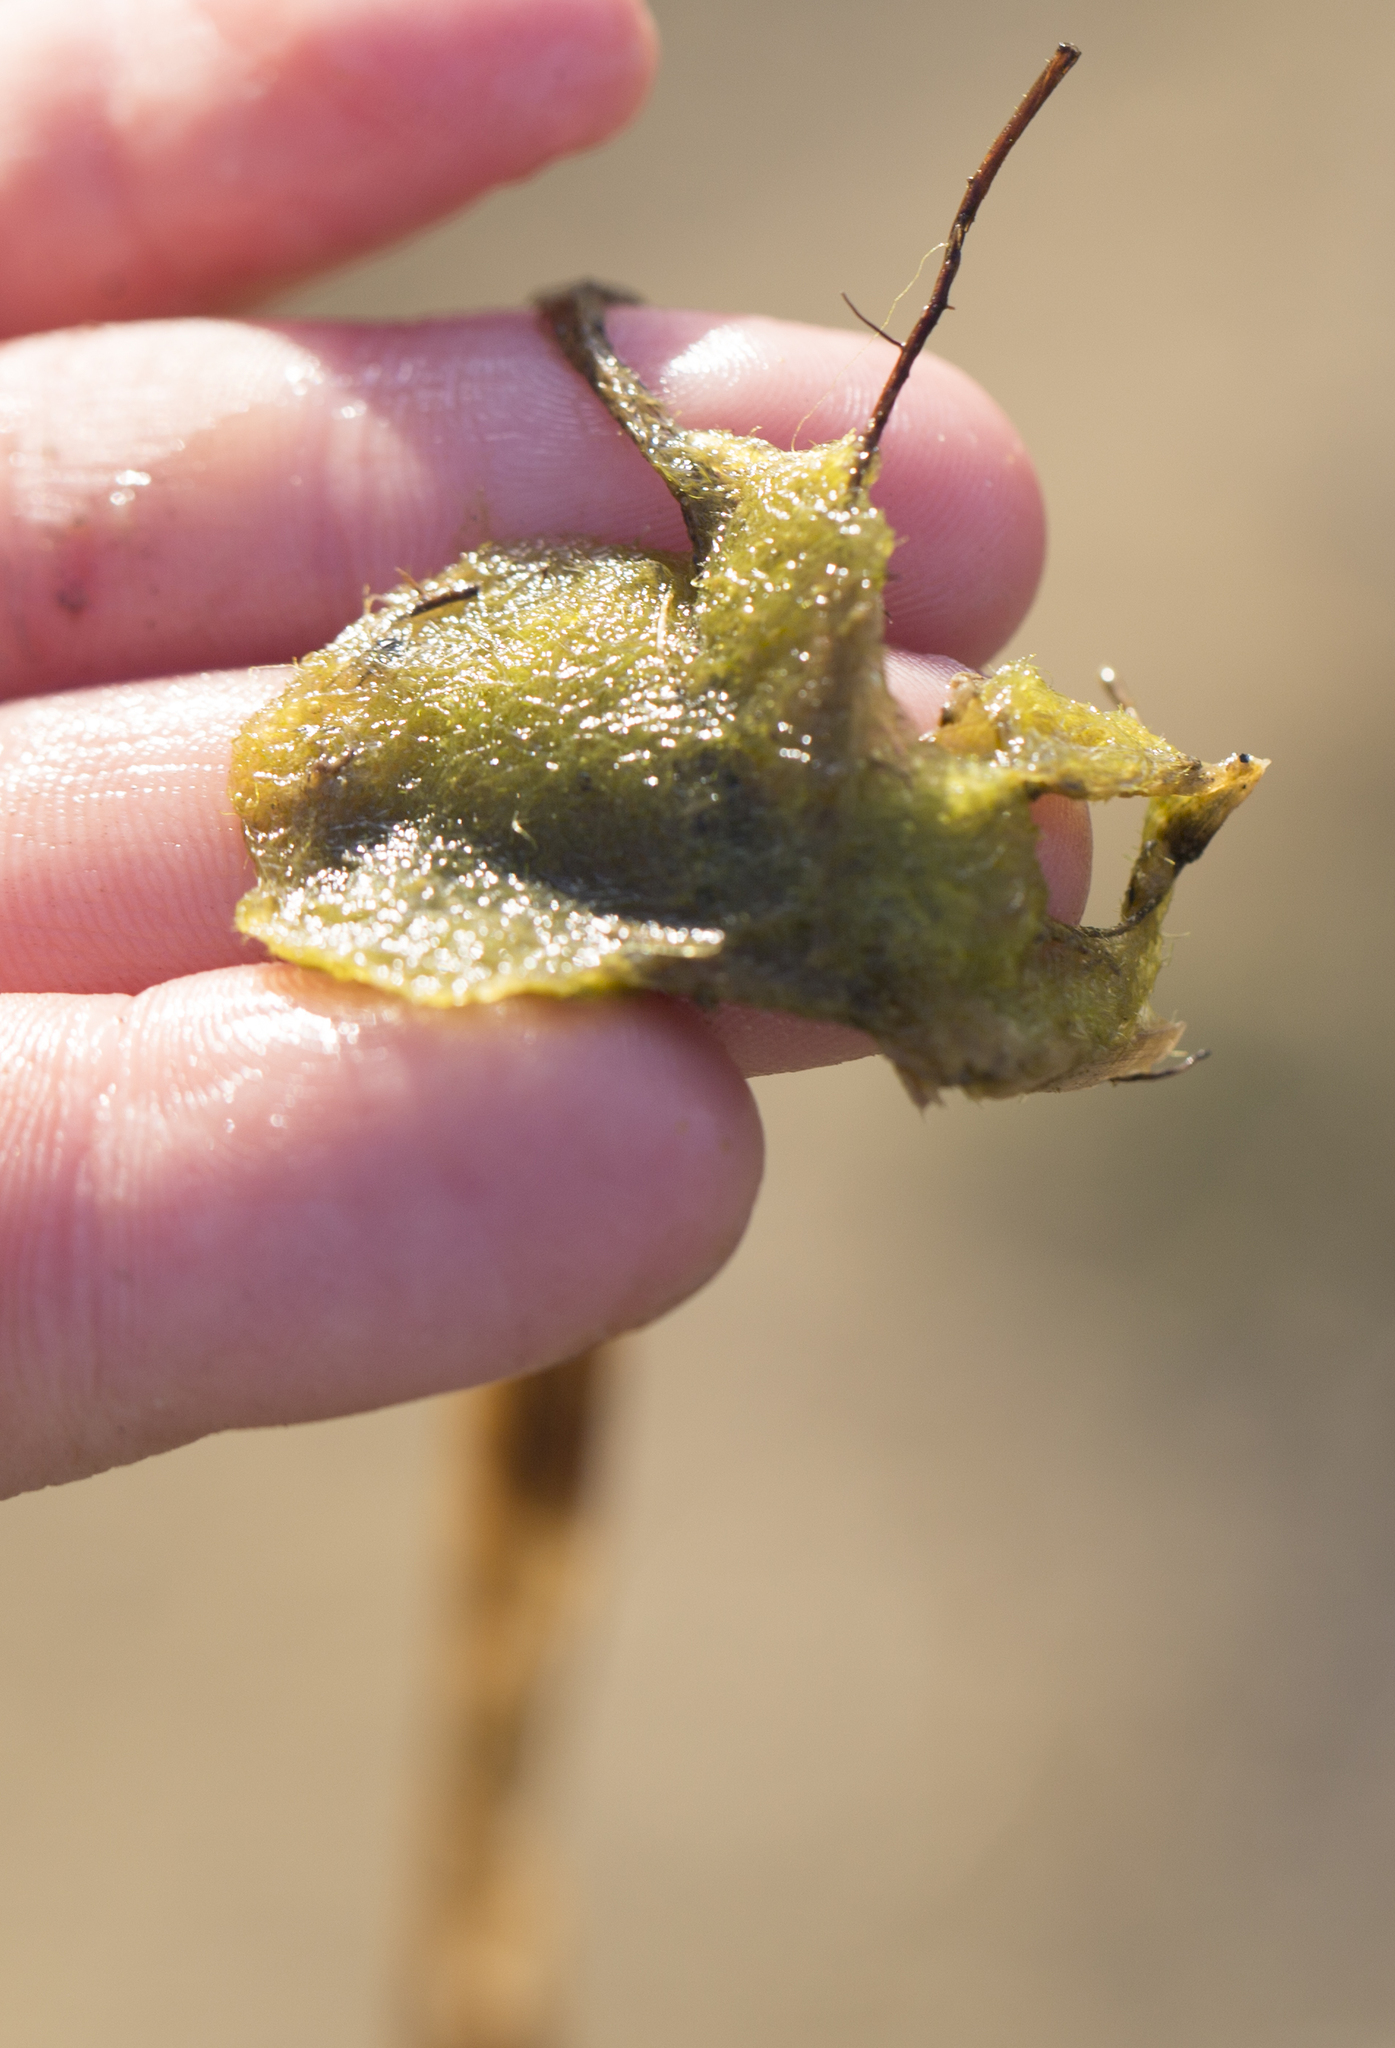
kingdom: Chromista
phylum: Ochrophyta
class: Xanthophyceae
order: Vaucheriales
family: Vaucheriaceae
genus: Vaucheria
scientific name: Vaucheria
